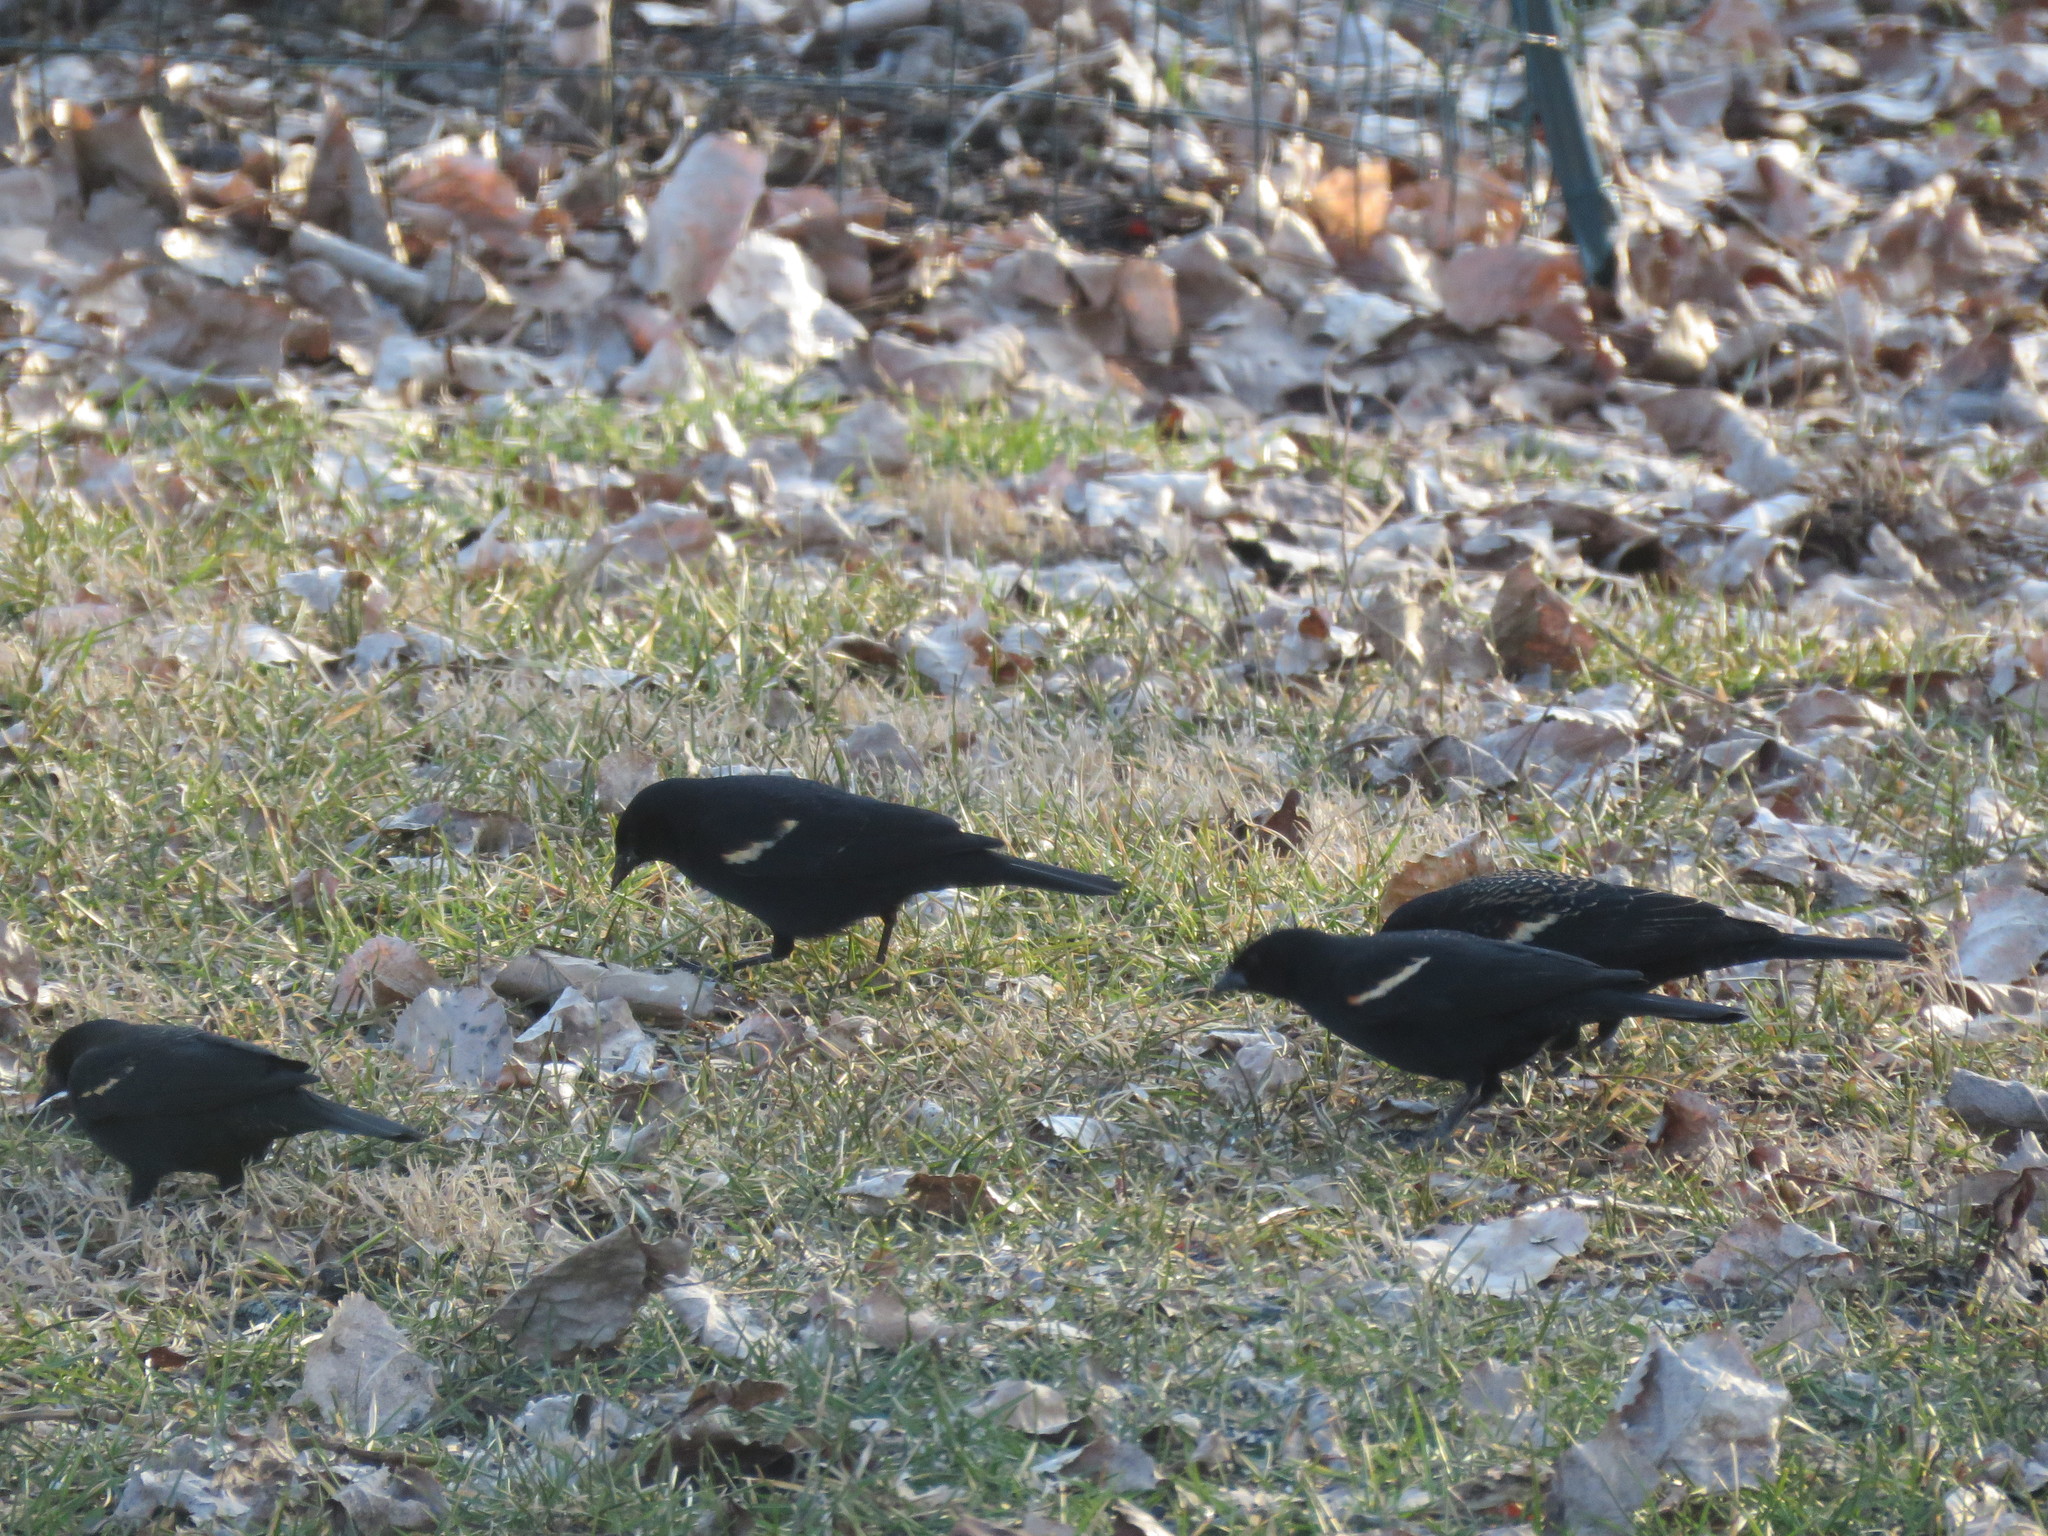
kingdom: Animalia
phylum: Chordata
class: Aves
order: Passeriformes
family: Icteridae
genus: Agelaius
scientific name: Agelaius phoeniceus
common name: Red-winged blackbird
